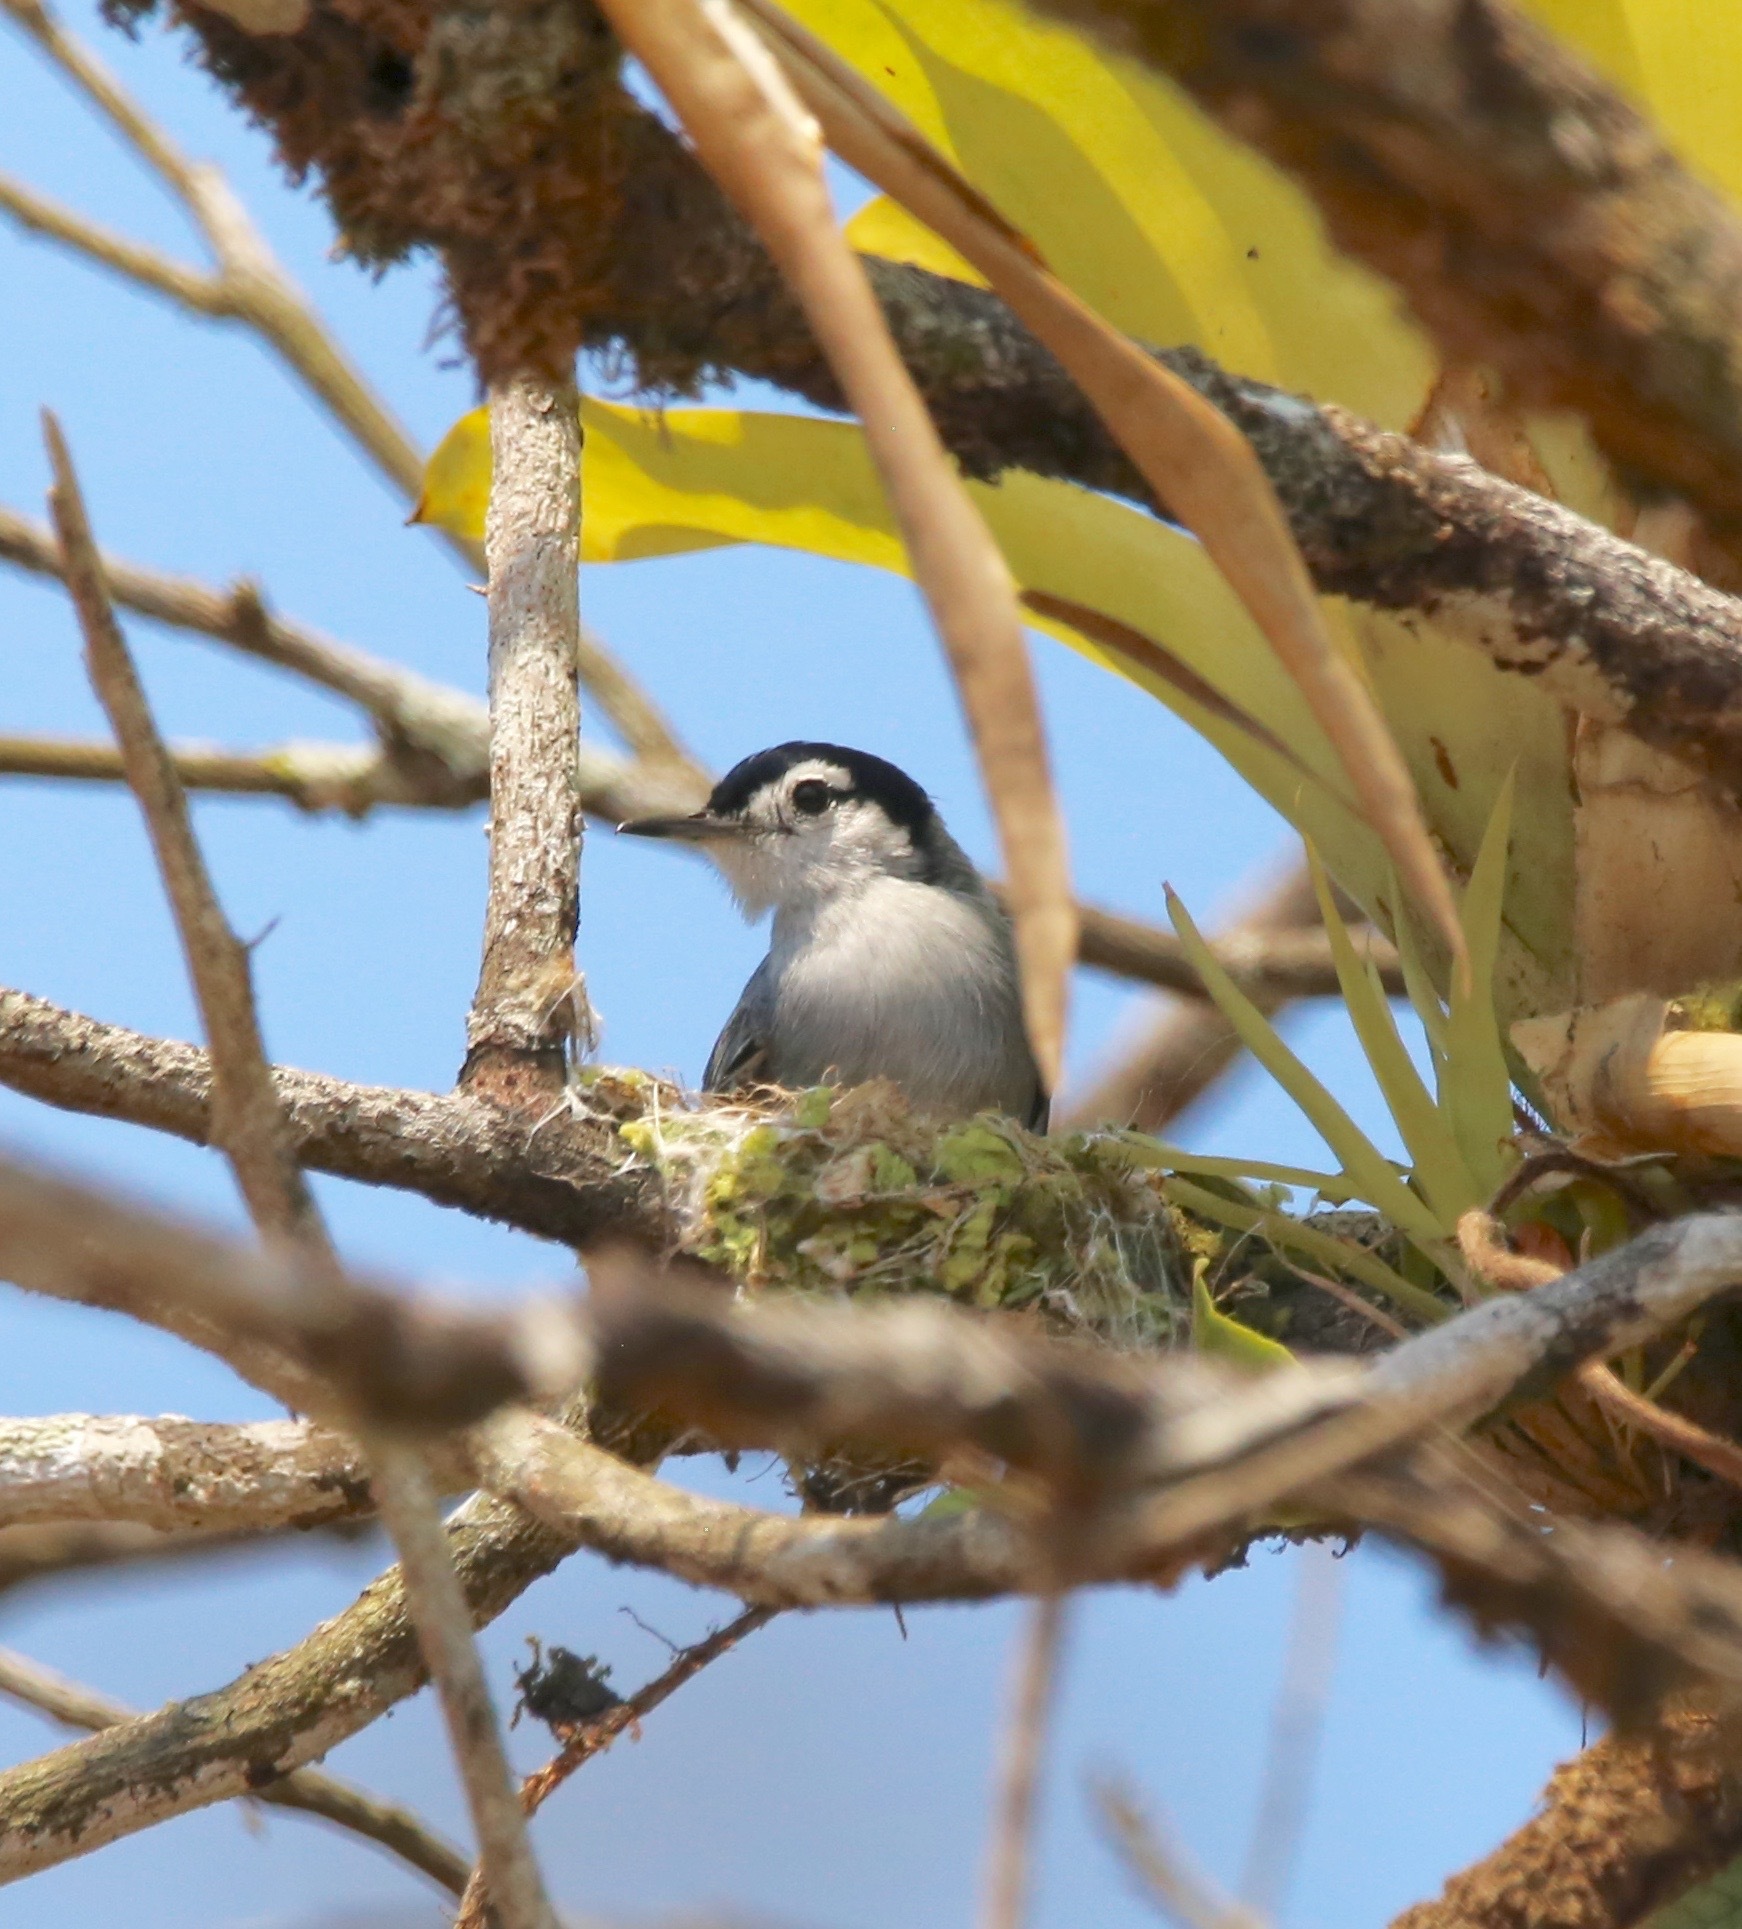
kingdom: Animalia
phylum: Chordata
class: Aves
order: Passeriformes
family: Polioptilidae
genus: Polioptila
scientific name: Polioptila plumbea
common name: Tropical gnatcatcher
